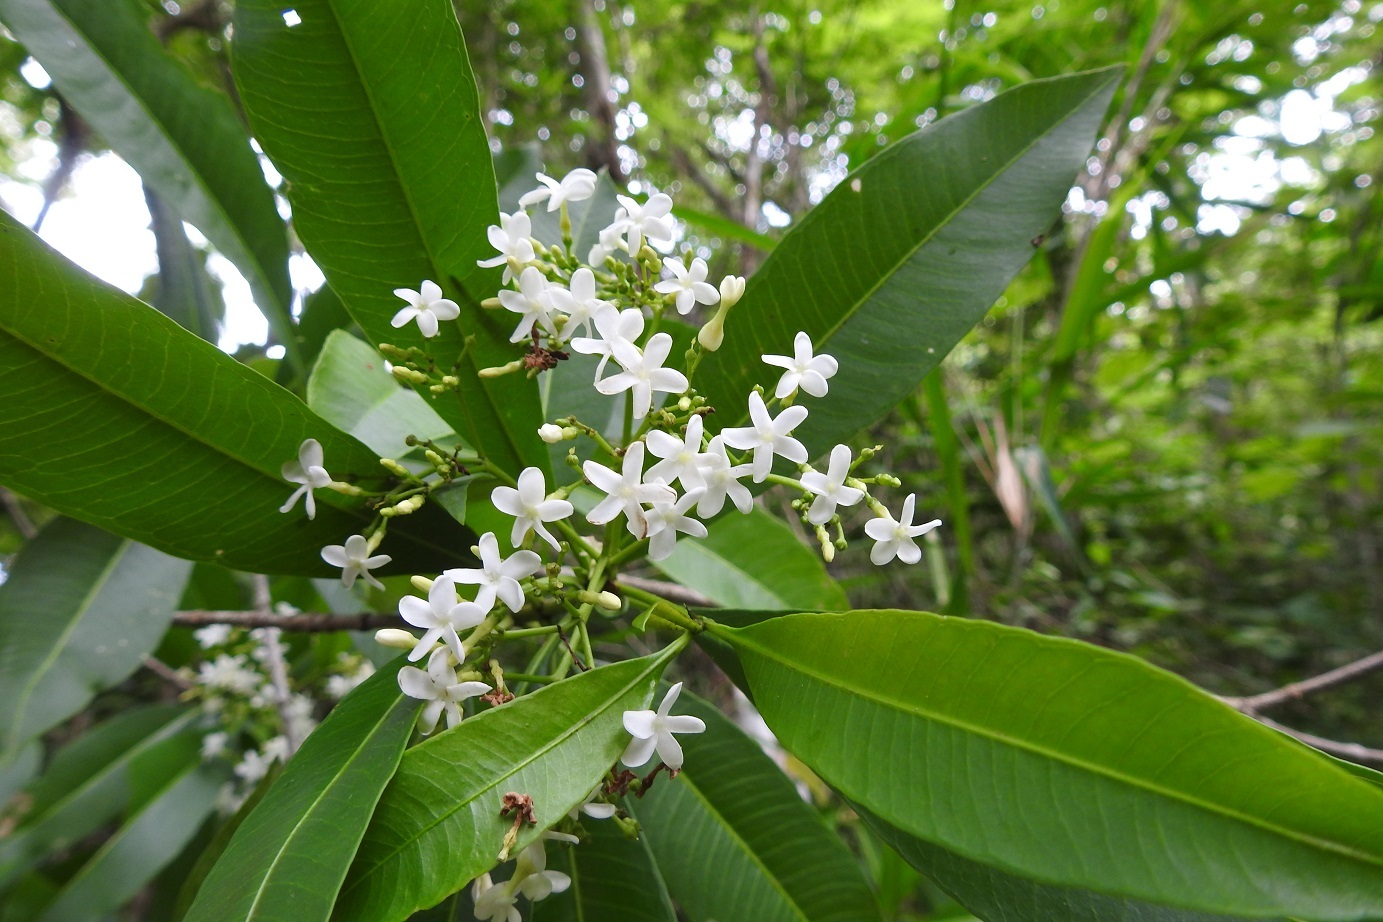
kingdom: Plantae
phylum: Tracheophyta
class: Magnoliopsida
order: Gentianales
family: Apocynaceae
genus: Tonduzia
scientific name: Tonduzia longifolia
